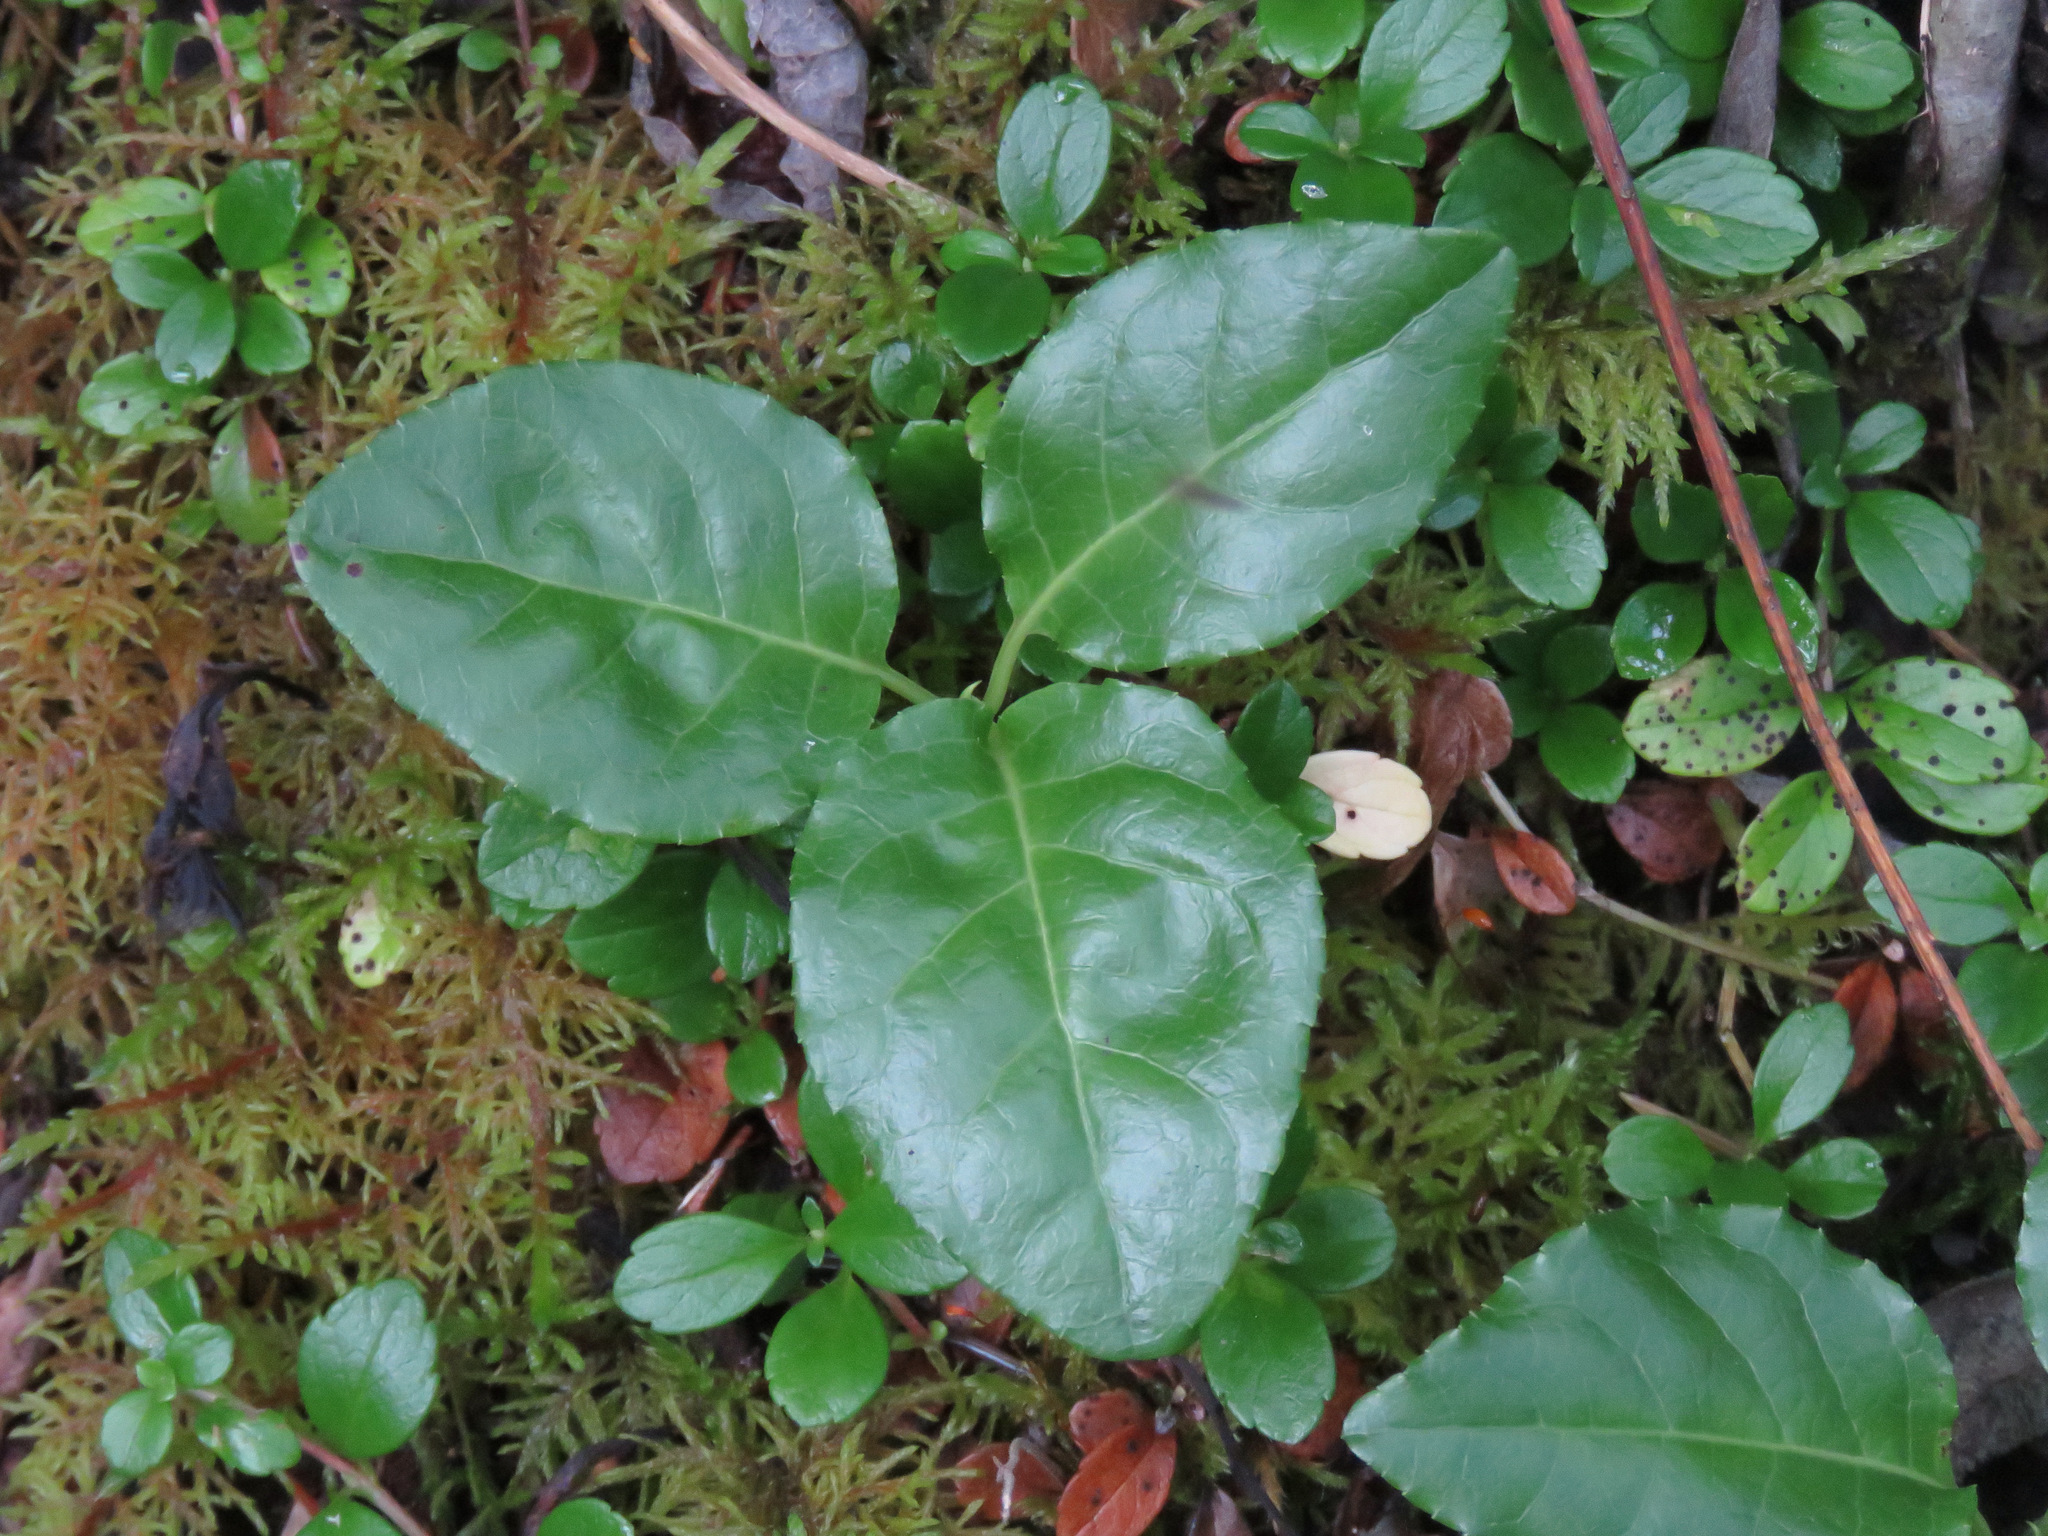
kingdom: Plantae
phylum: Tracheophyta
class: Magnoliopsida
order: Ericales
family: Ericaceae
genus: Orthilia
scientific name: Orthilia secunda
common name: One-sided orthilia
